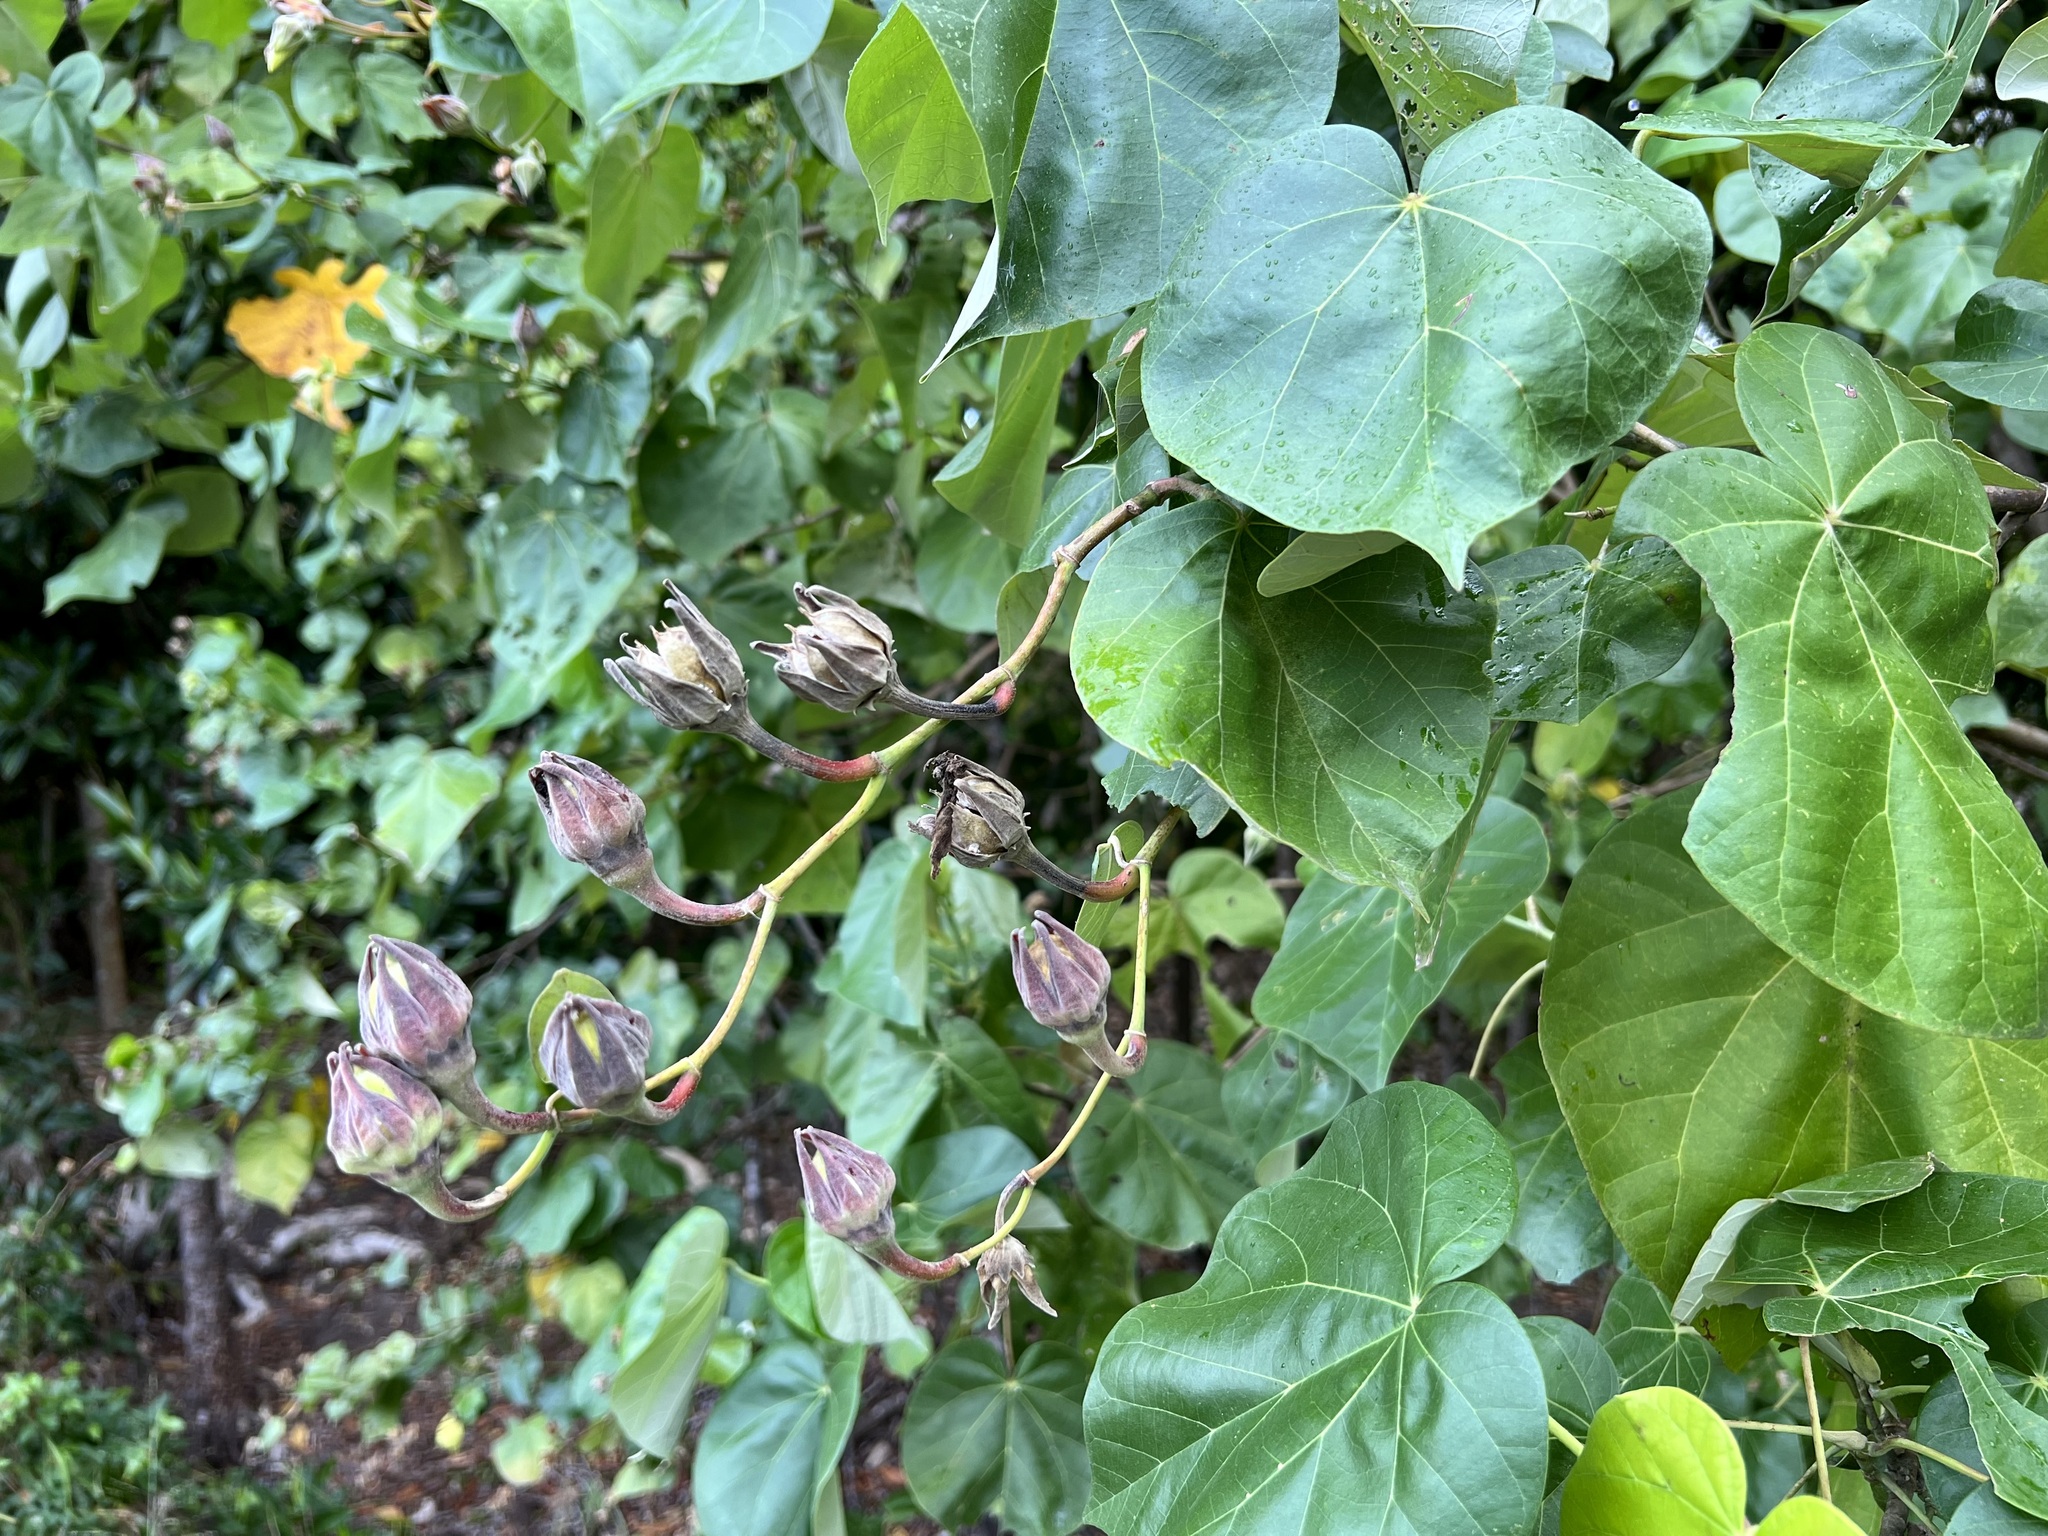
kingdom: Plantae
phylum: Tracheophyta
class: Magnoliopsida
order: Malvales
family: Malvaceae
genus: Talipariti
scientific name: Talipariti tiliaceum
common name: Sea hibiscus
